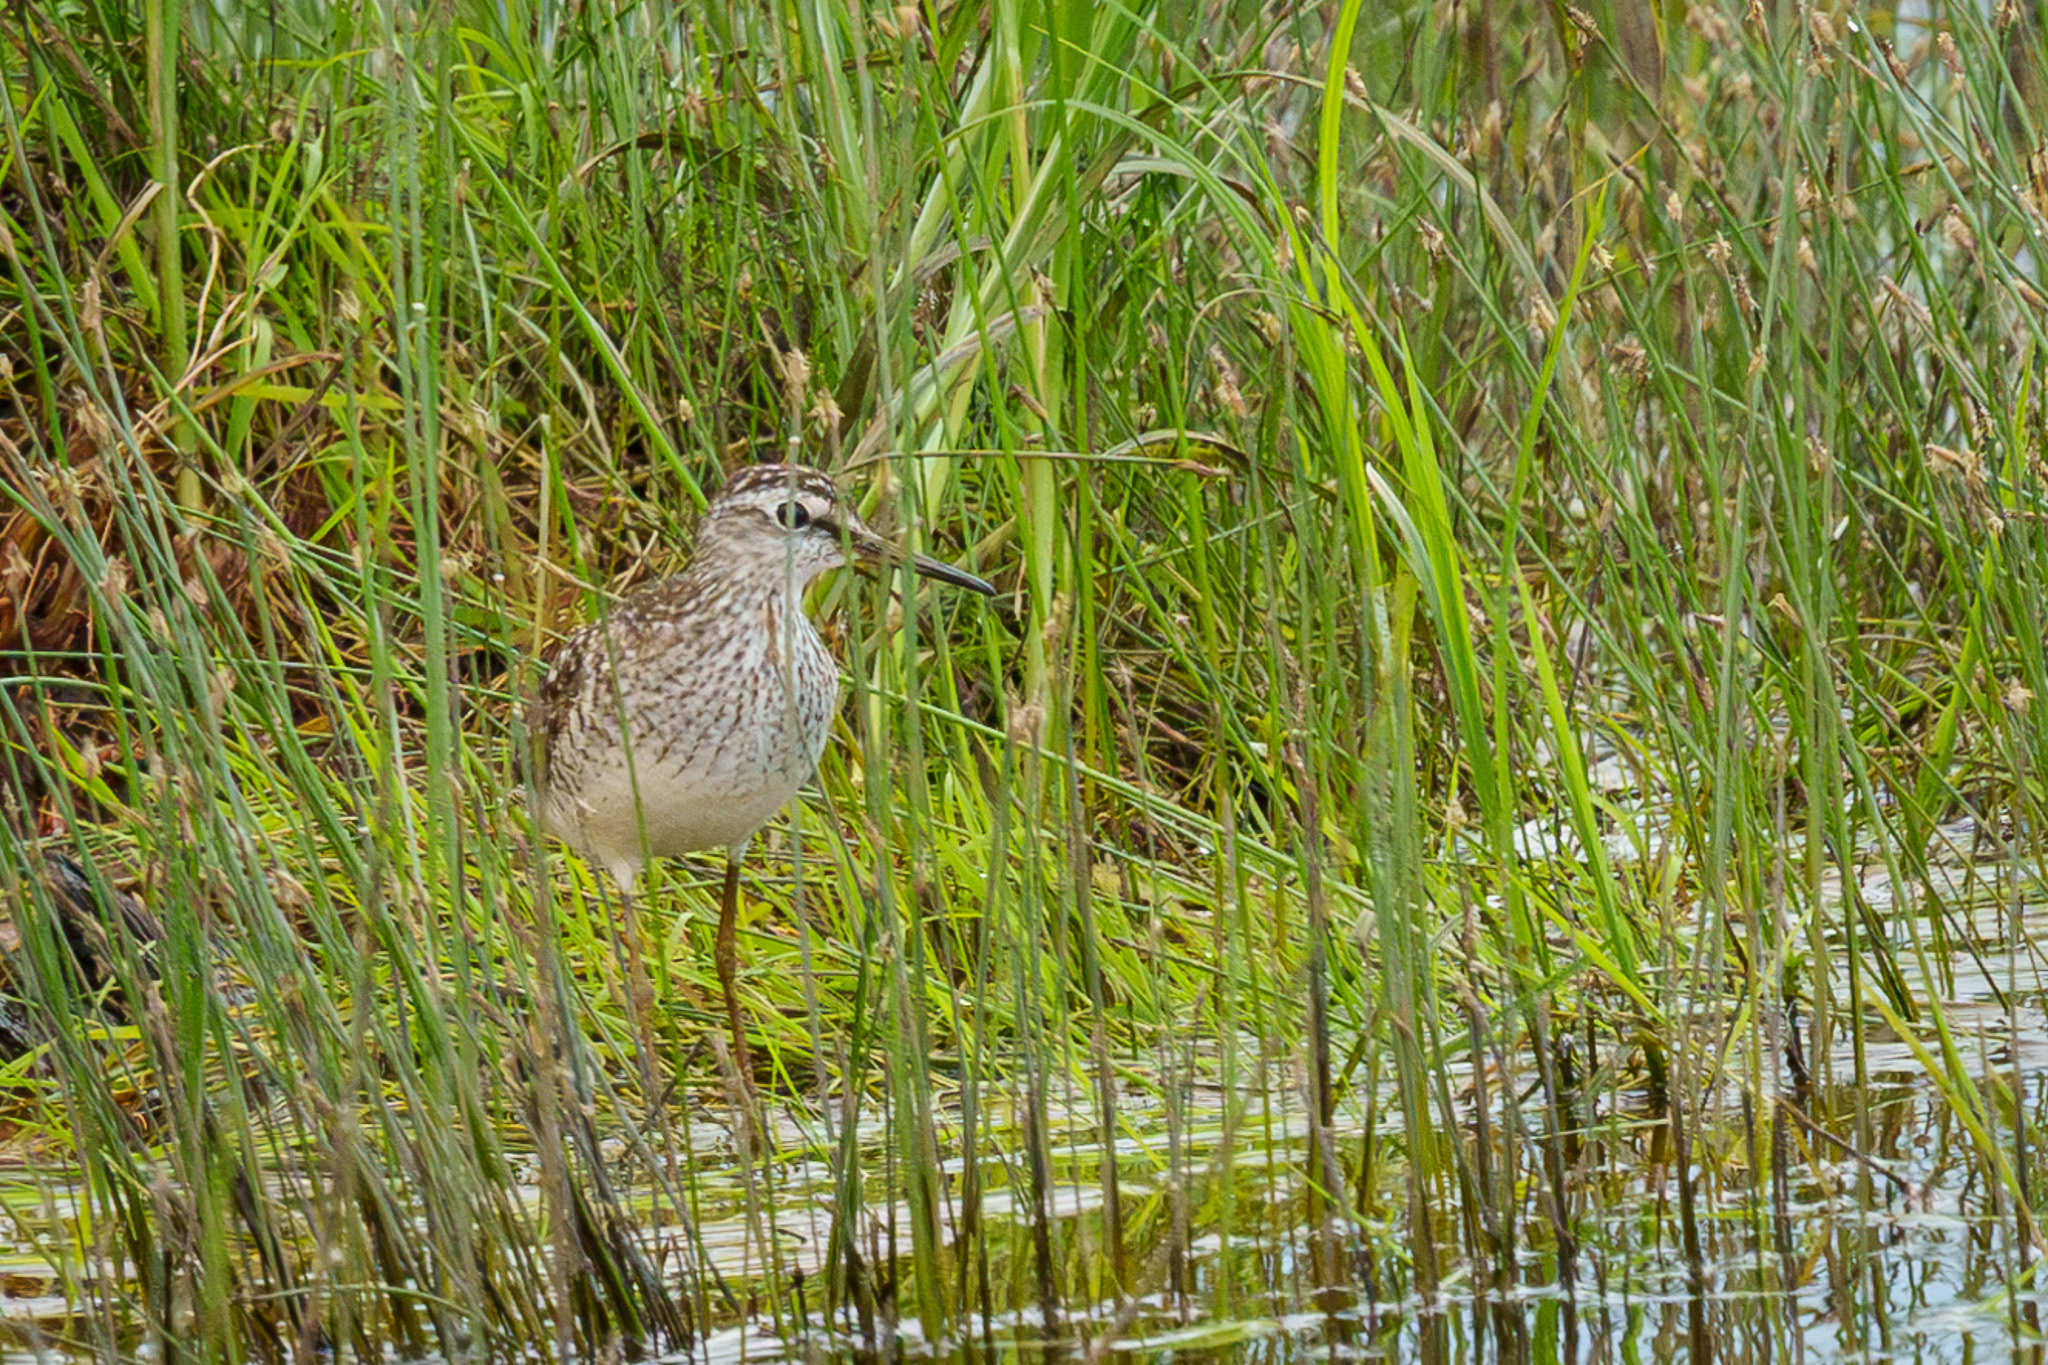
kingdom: Animalia
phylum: Chordata
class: Aves
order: Charadriiformes
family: Scolopacidae
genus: Tringa
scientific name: Tringa glareola
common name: Wood sandpiper
